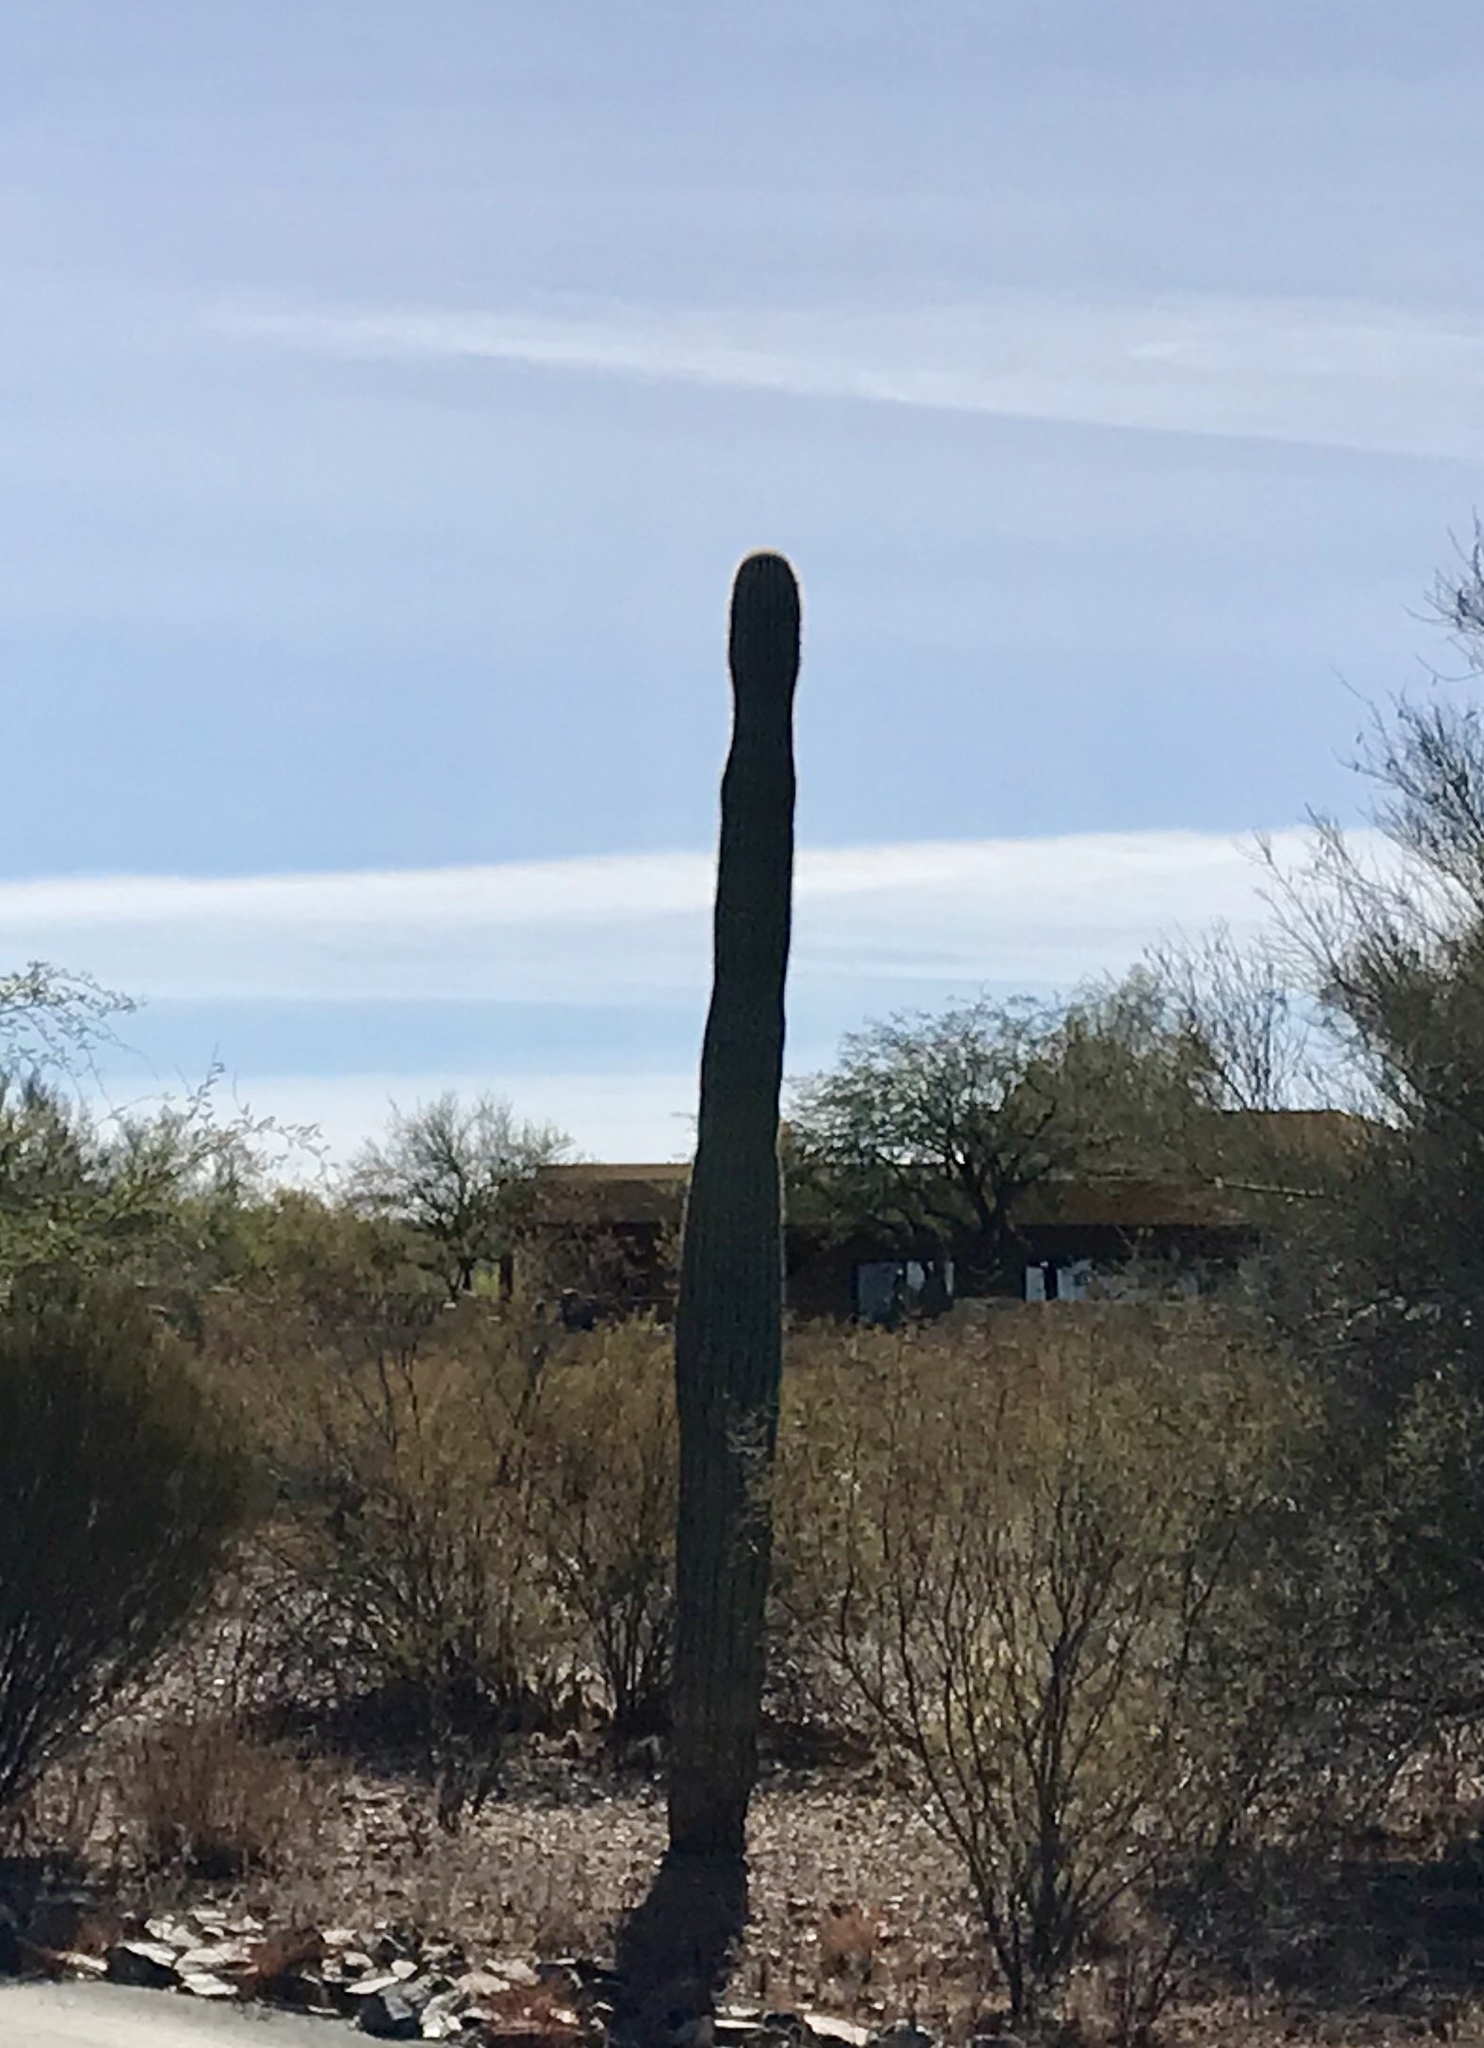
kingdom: Plantae
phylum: Tracheophyta
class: Magnoliopsida
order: Caryophyllales
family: Cactaceae
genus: Carnegiea
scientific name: Carnegiea gigantea
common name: Saguaro
